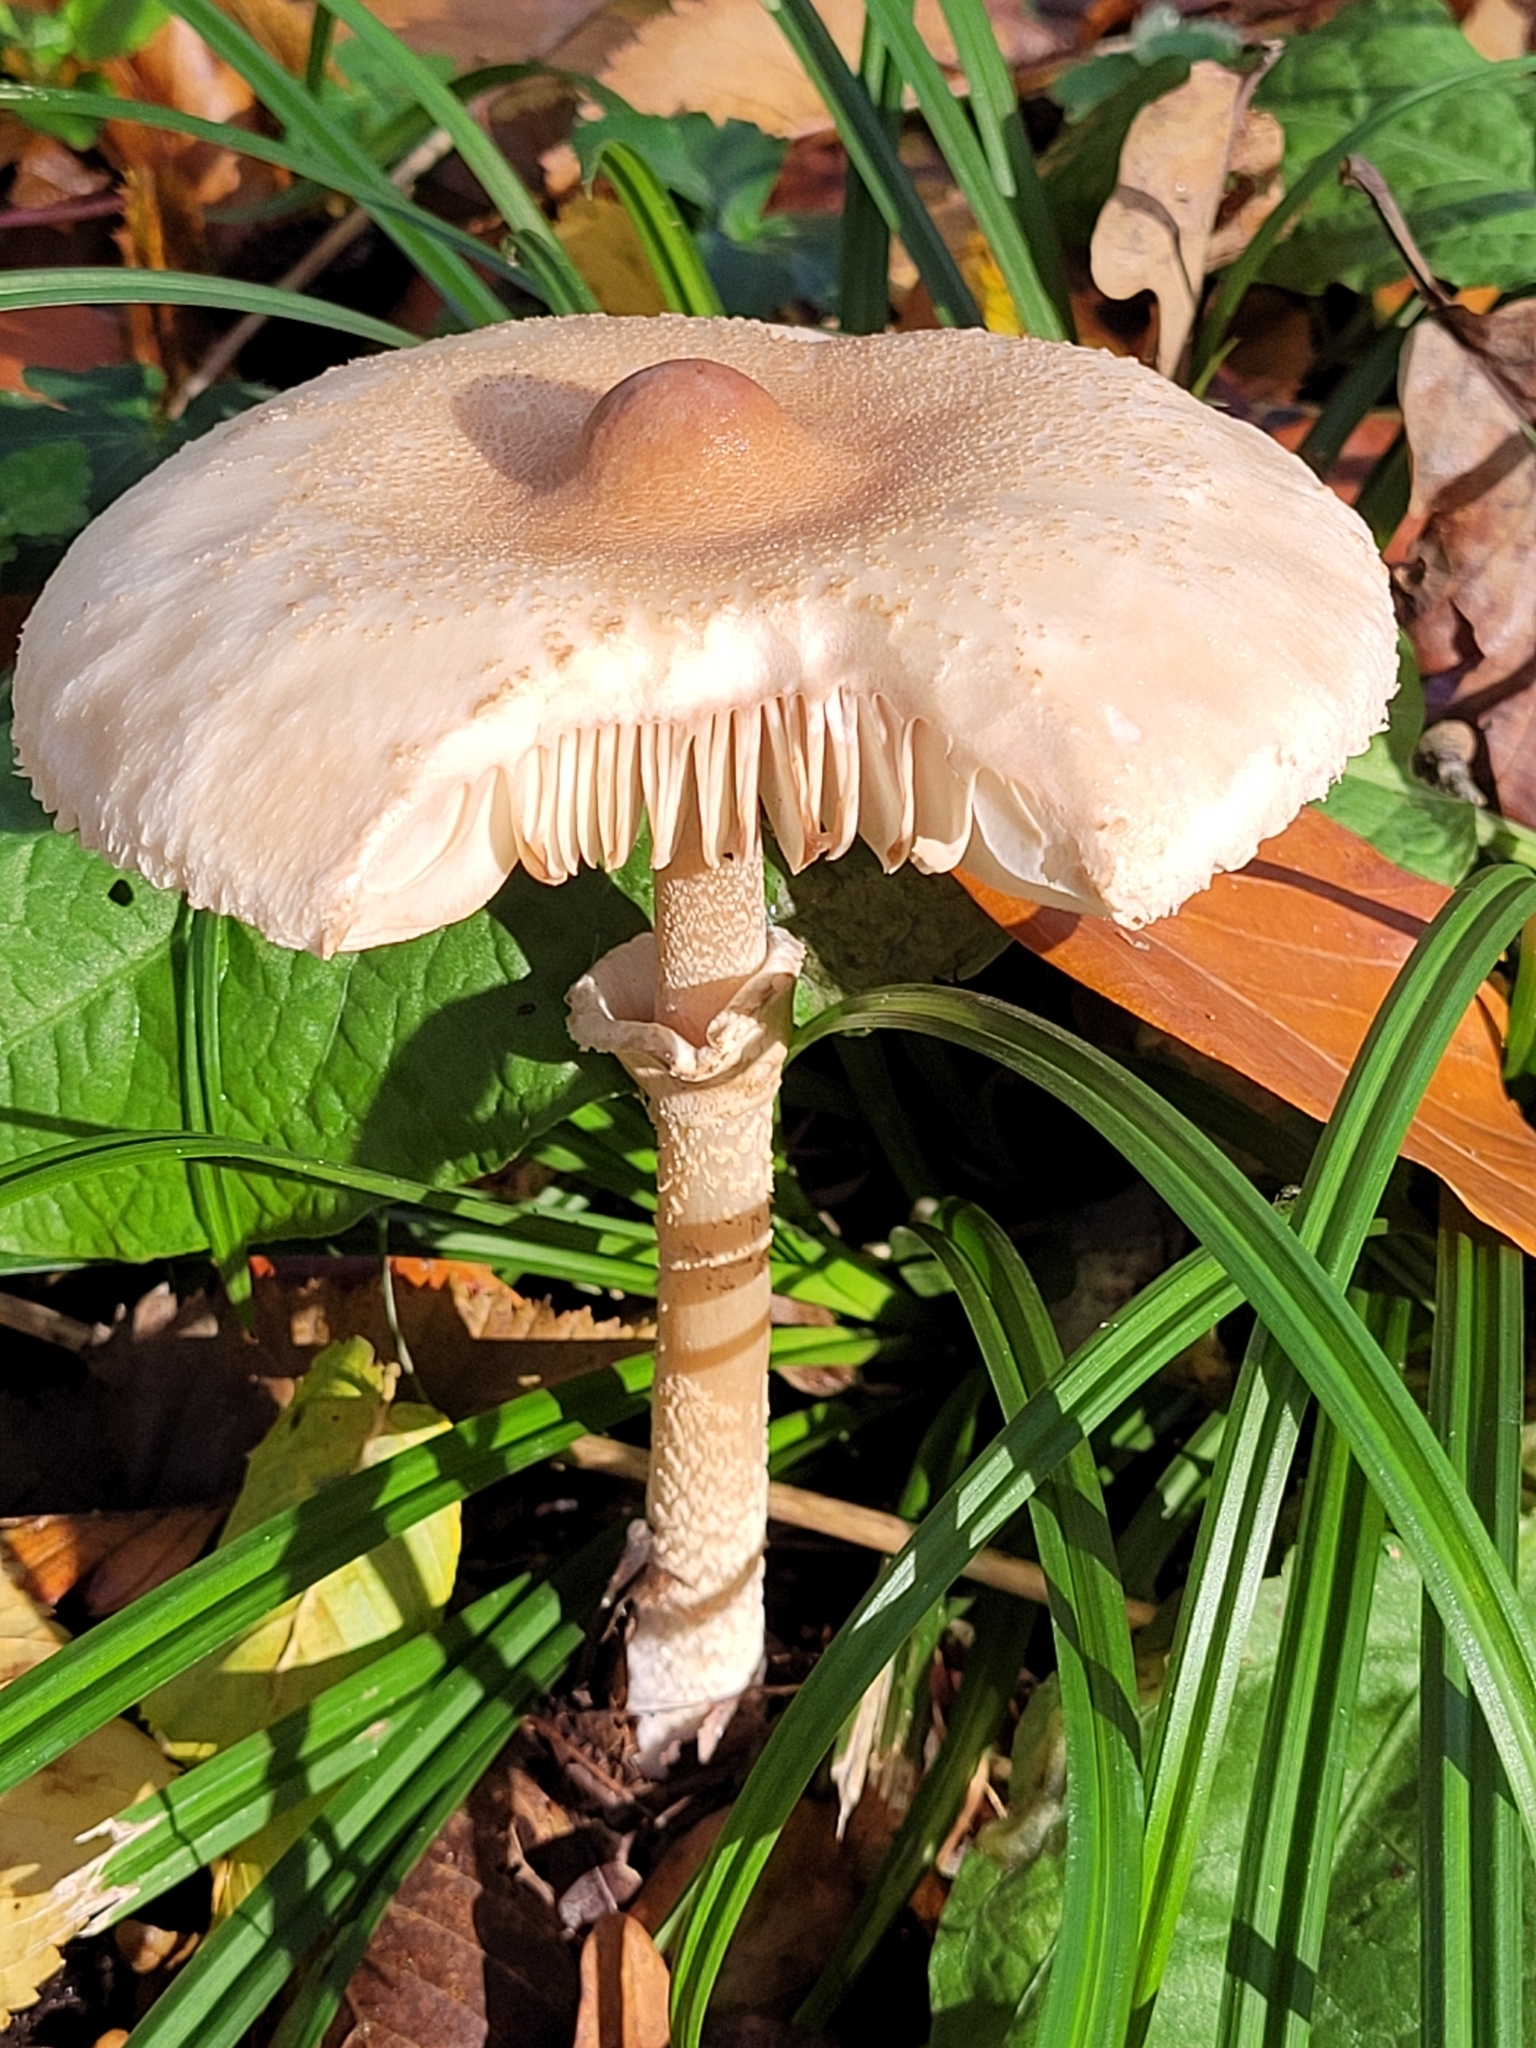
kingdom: Fungi
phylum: Basidiomycota
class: Agaricomycetes
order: Agaricales
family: Agaricaceae
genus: Macrolepiota
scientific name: Macrolepiota mastoidea
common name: Slender parasol
